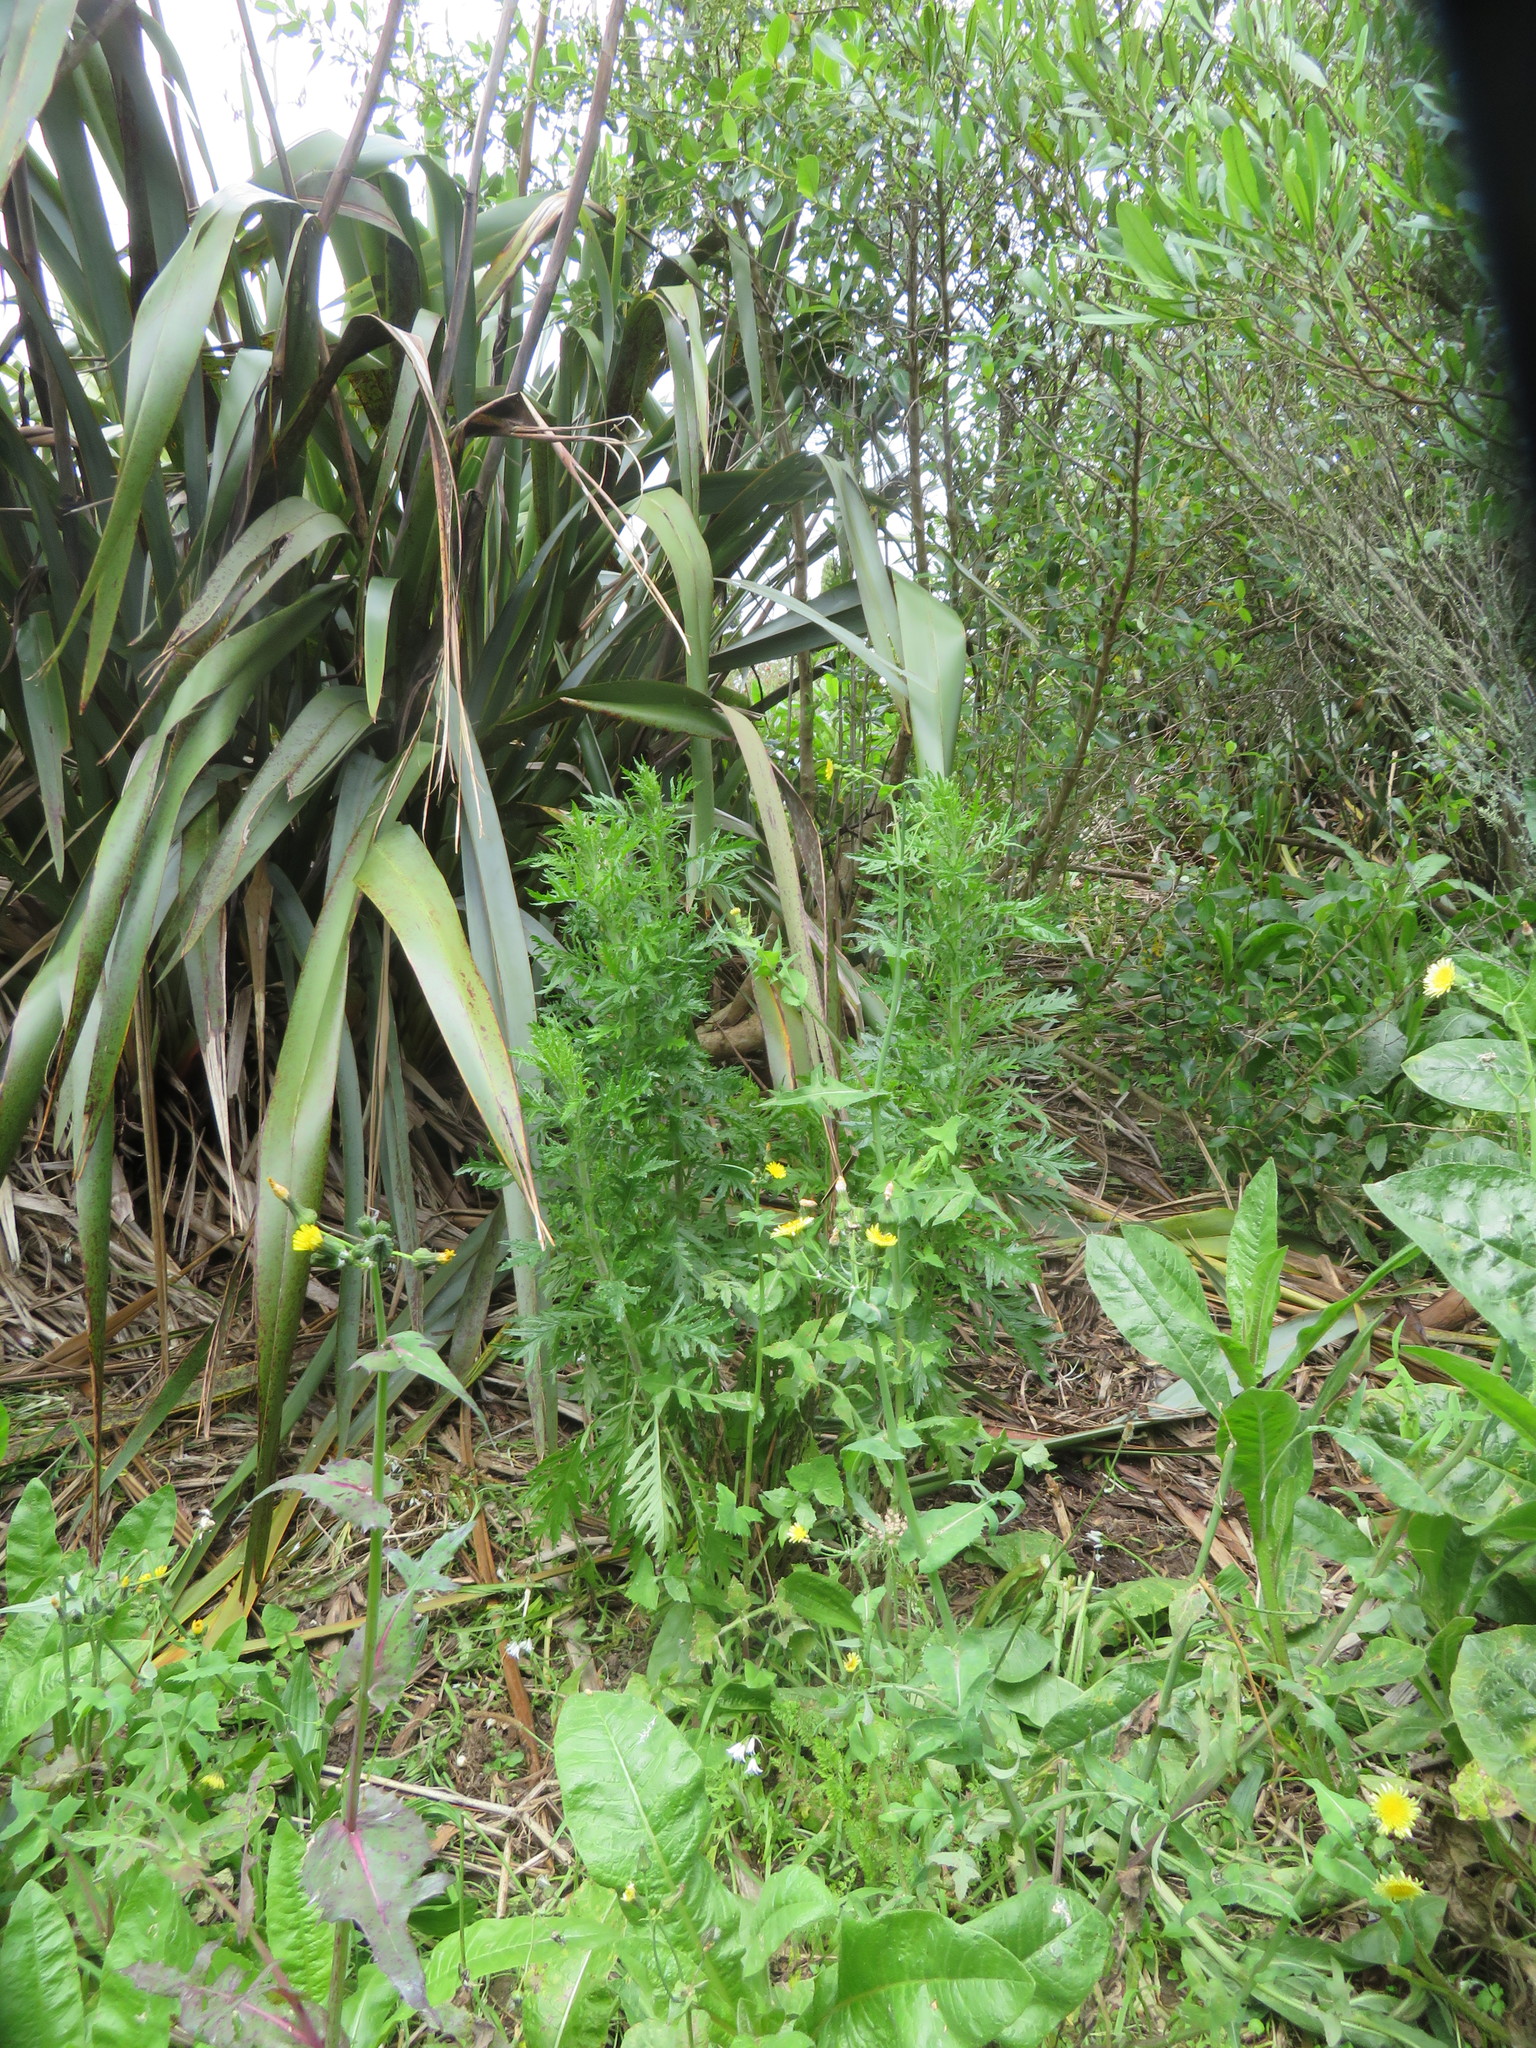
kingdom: Plantae
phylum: Tracheophyta
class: Magnoliopsida
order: Asterales
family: Asteraceae
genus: Senecio
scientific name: Senecio esleri
